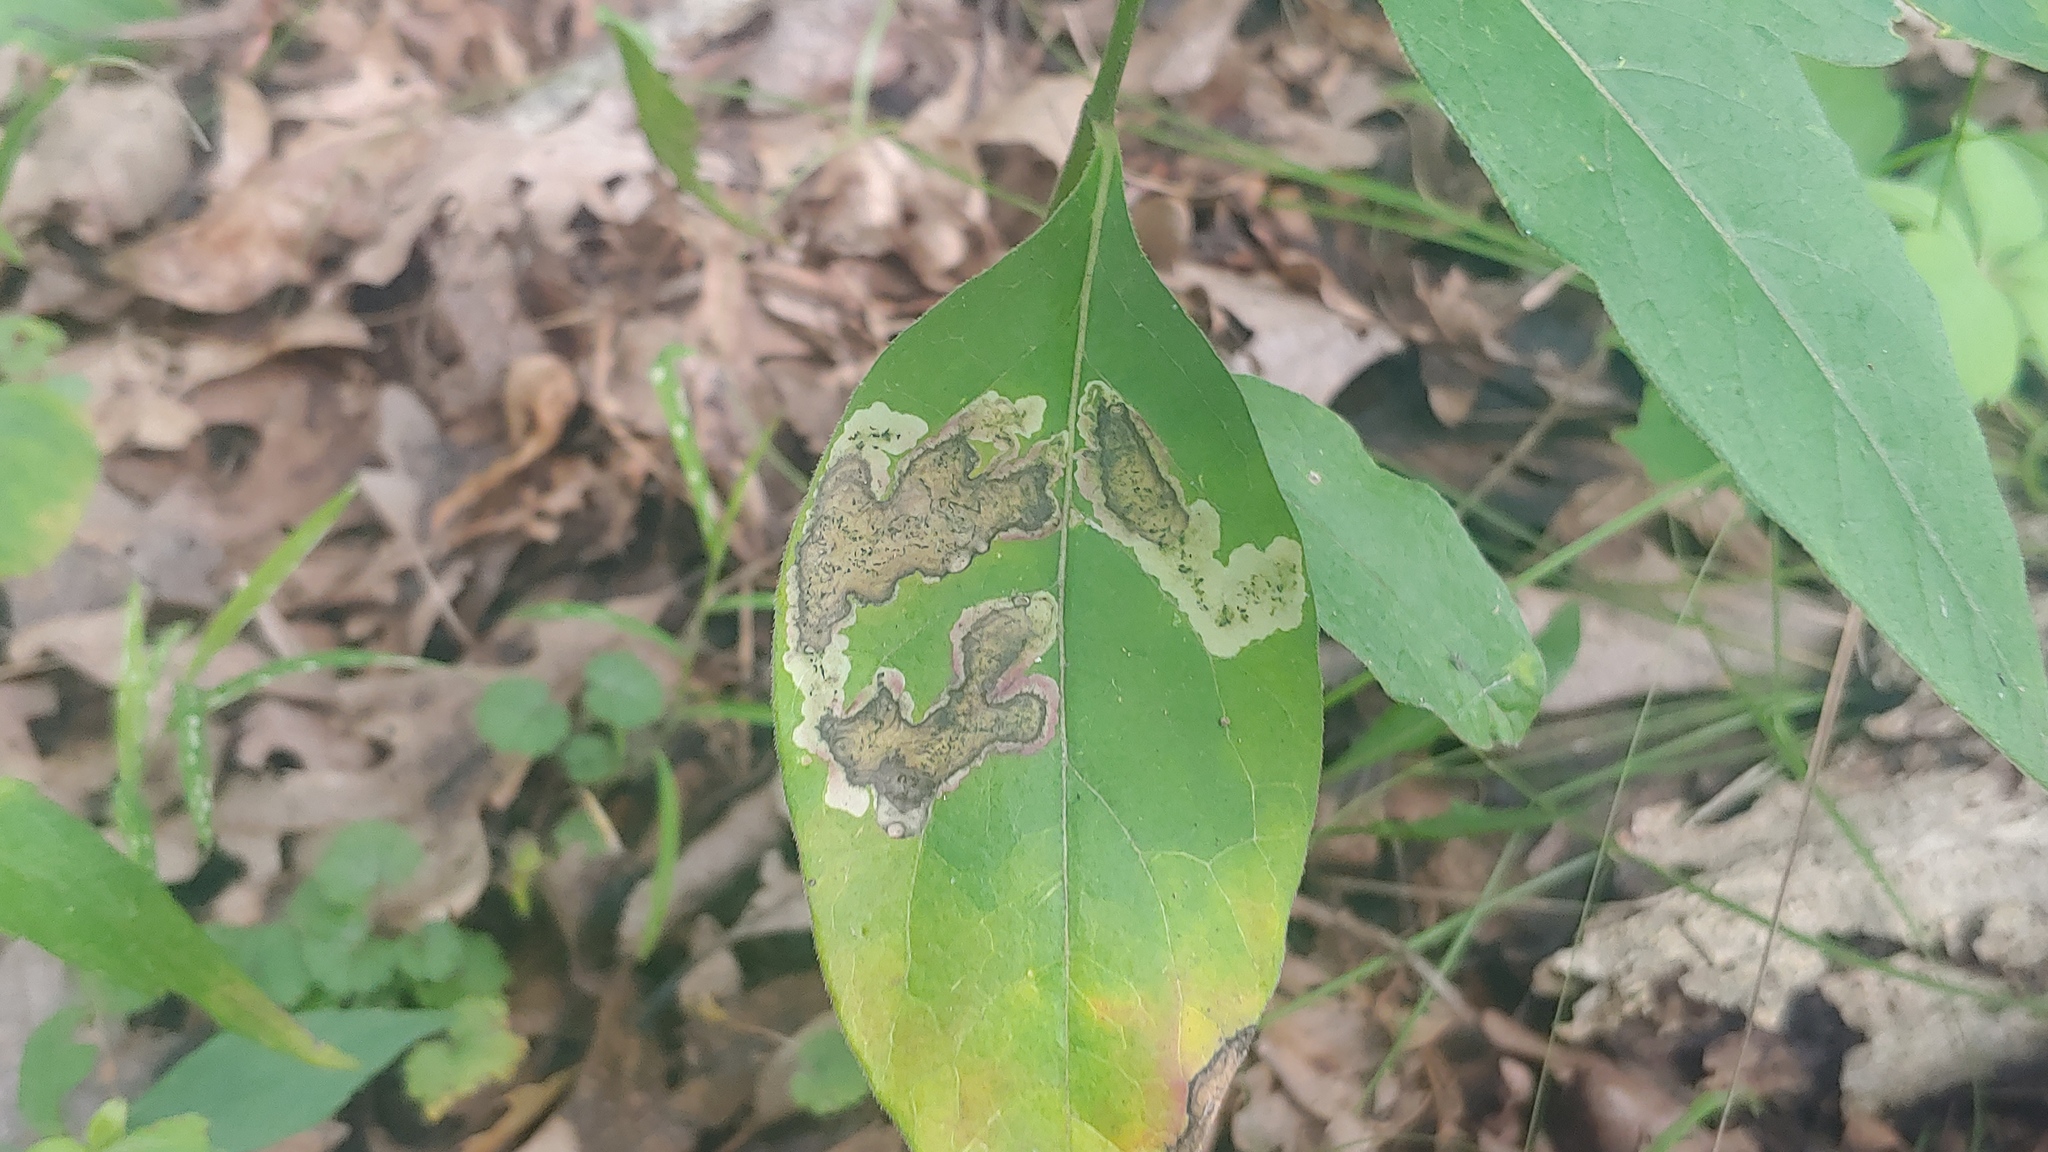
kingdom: Animalia
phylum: Arthropoda
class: Insecta
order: Diptera
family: Agromyzidae
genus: Liriomyza
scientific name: Liriomyza asclepiadis
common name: Milkweed leaf-miner fly
